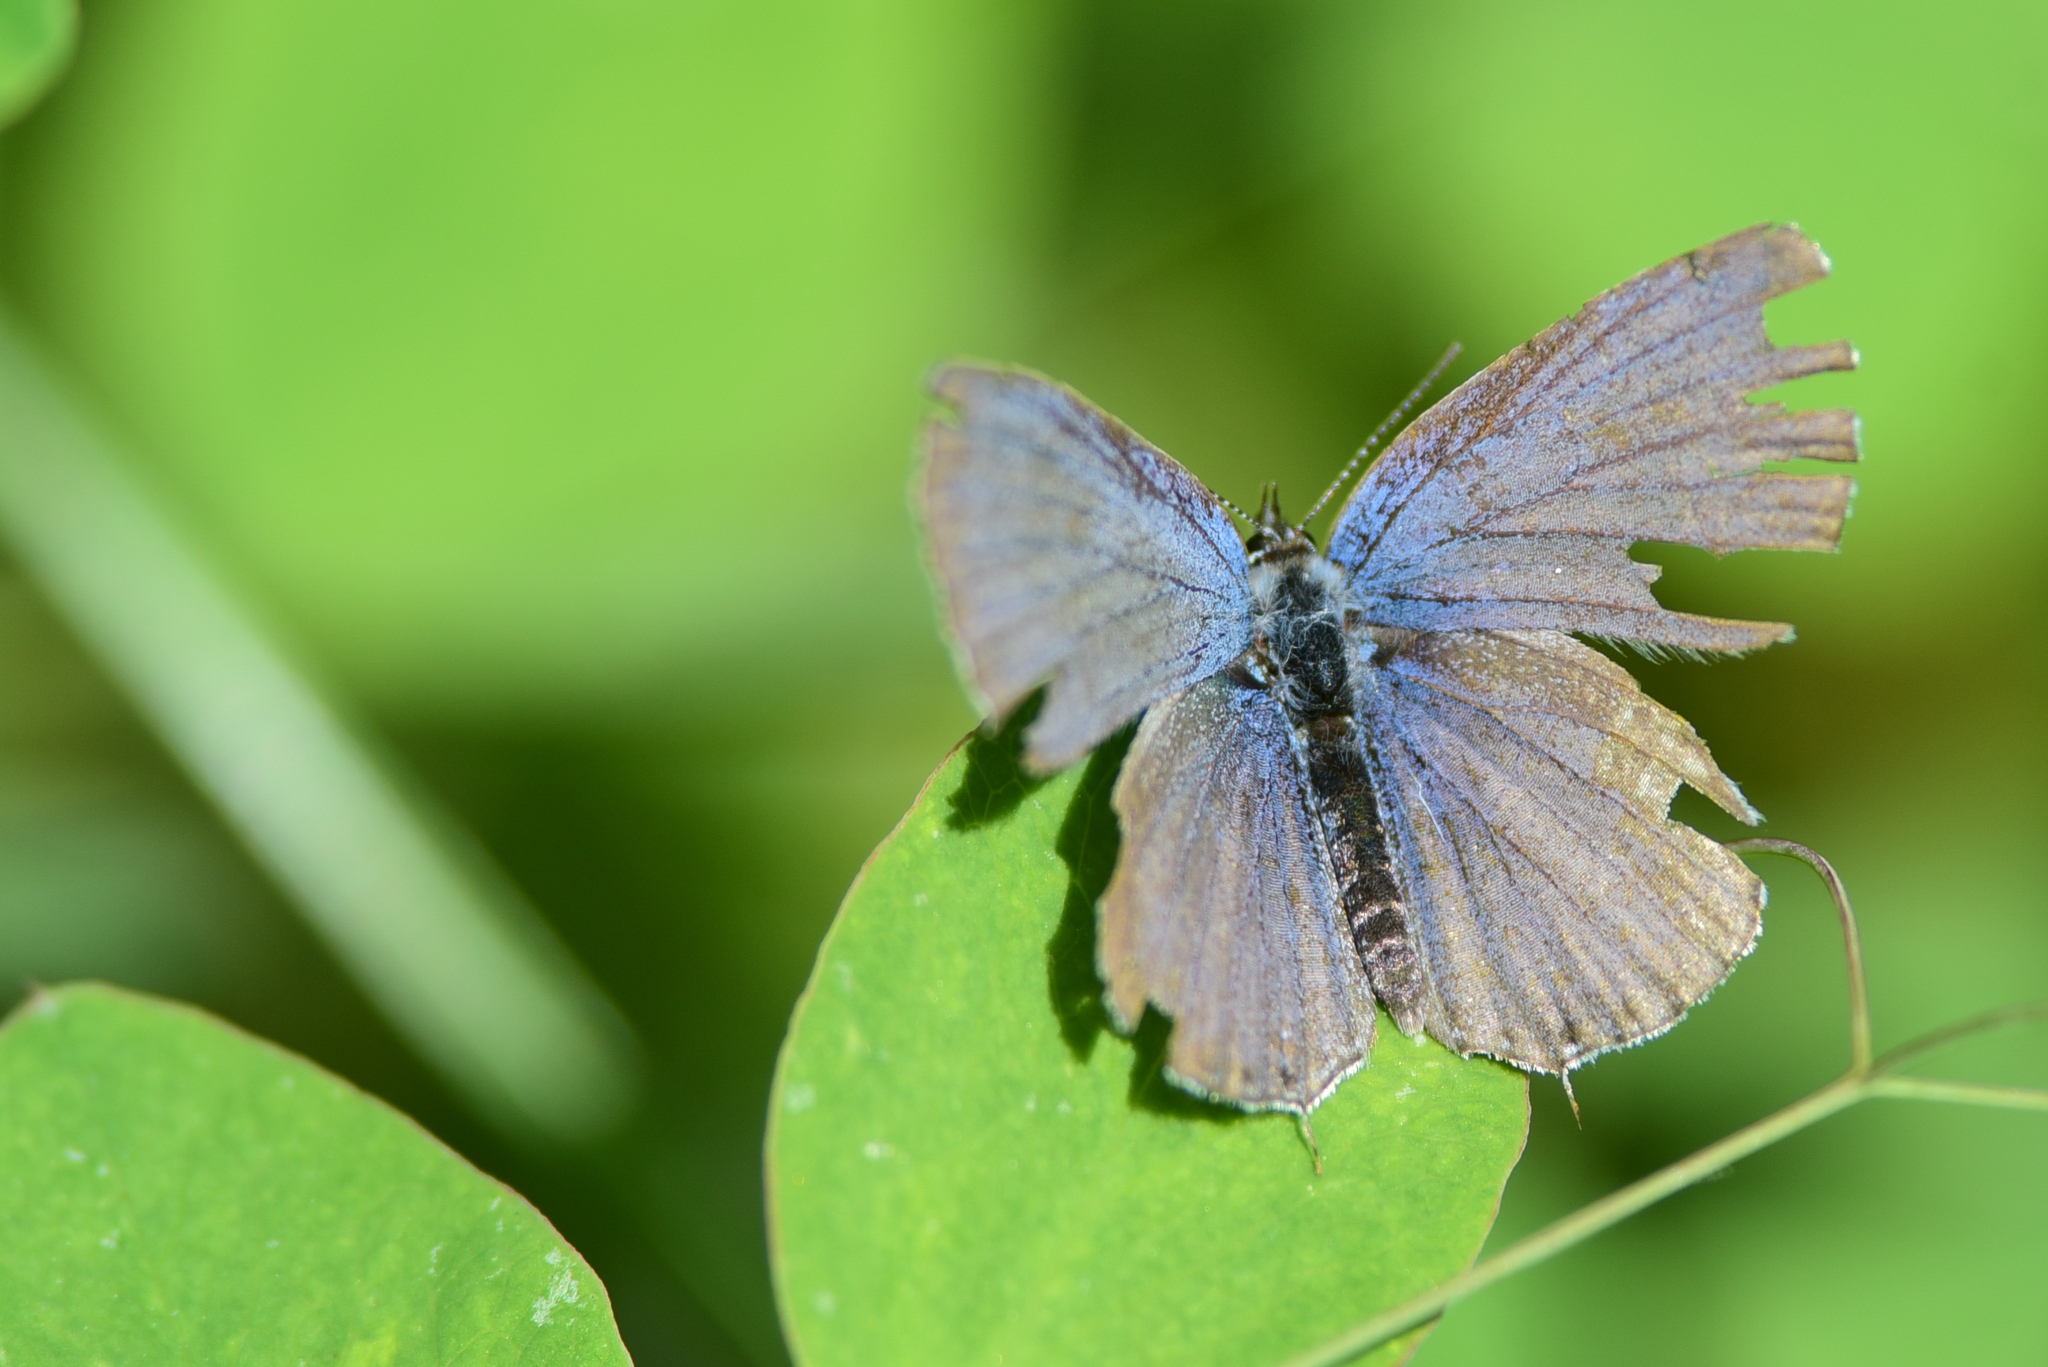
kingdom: Animalia
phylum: Arthropoda
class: Insecta
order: Lepidoptera
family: Lycaenidae
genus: Elkalyce
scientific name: Elkalyce amyntula
